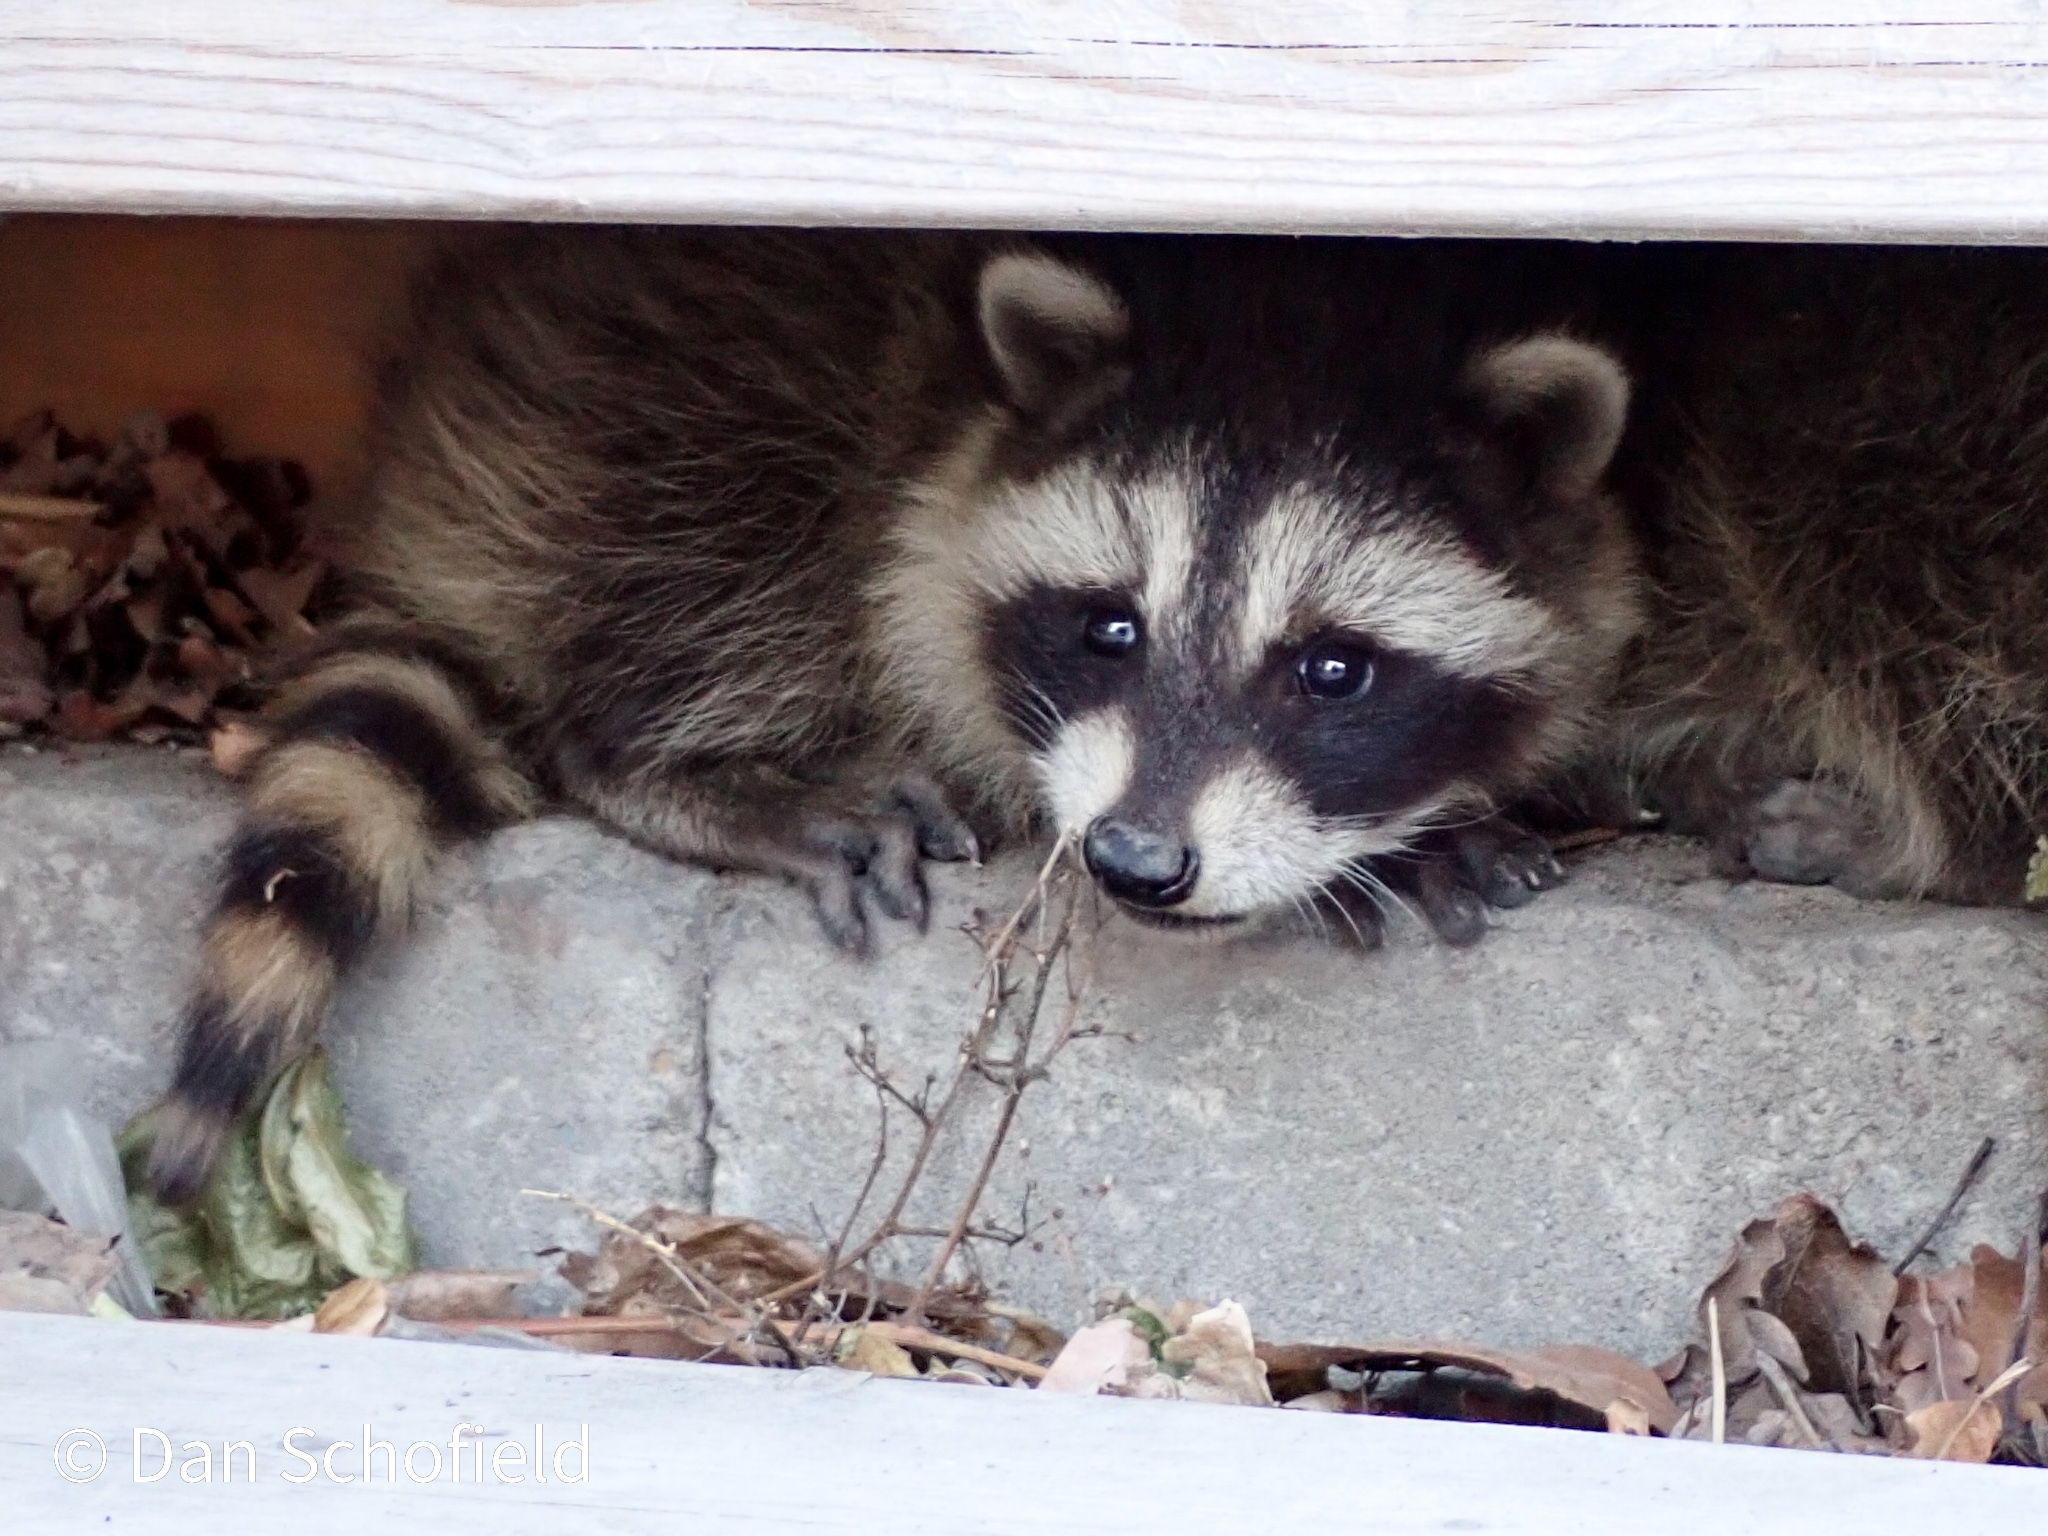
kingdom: Animalia
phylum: Chordata
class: Mammalia
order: Carnivora
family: Procyonidae
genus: Procyon
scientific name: Procyon lotor
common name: Raccoon
